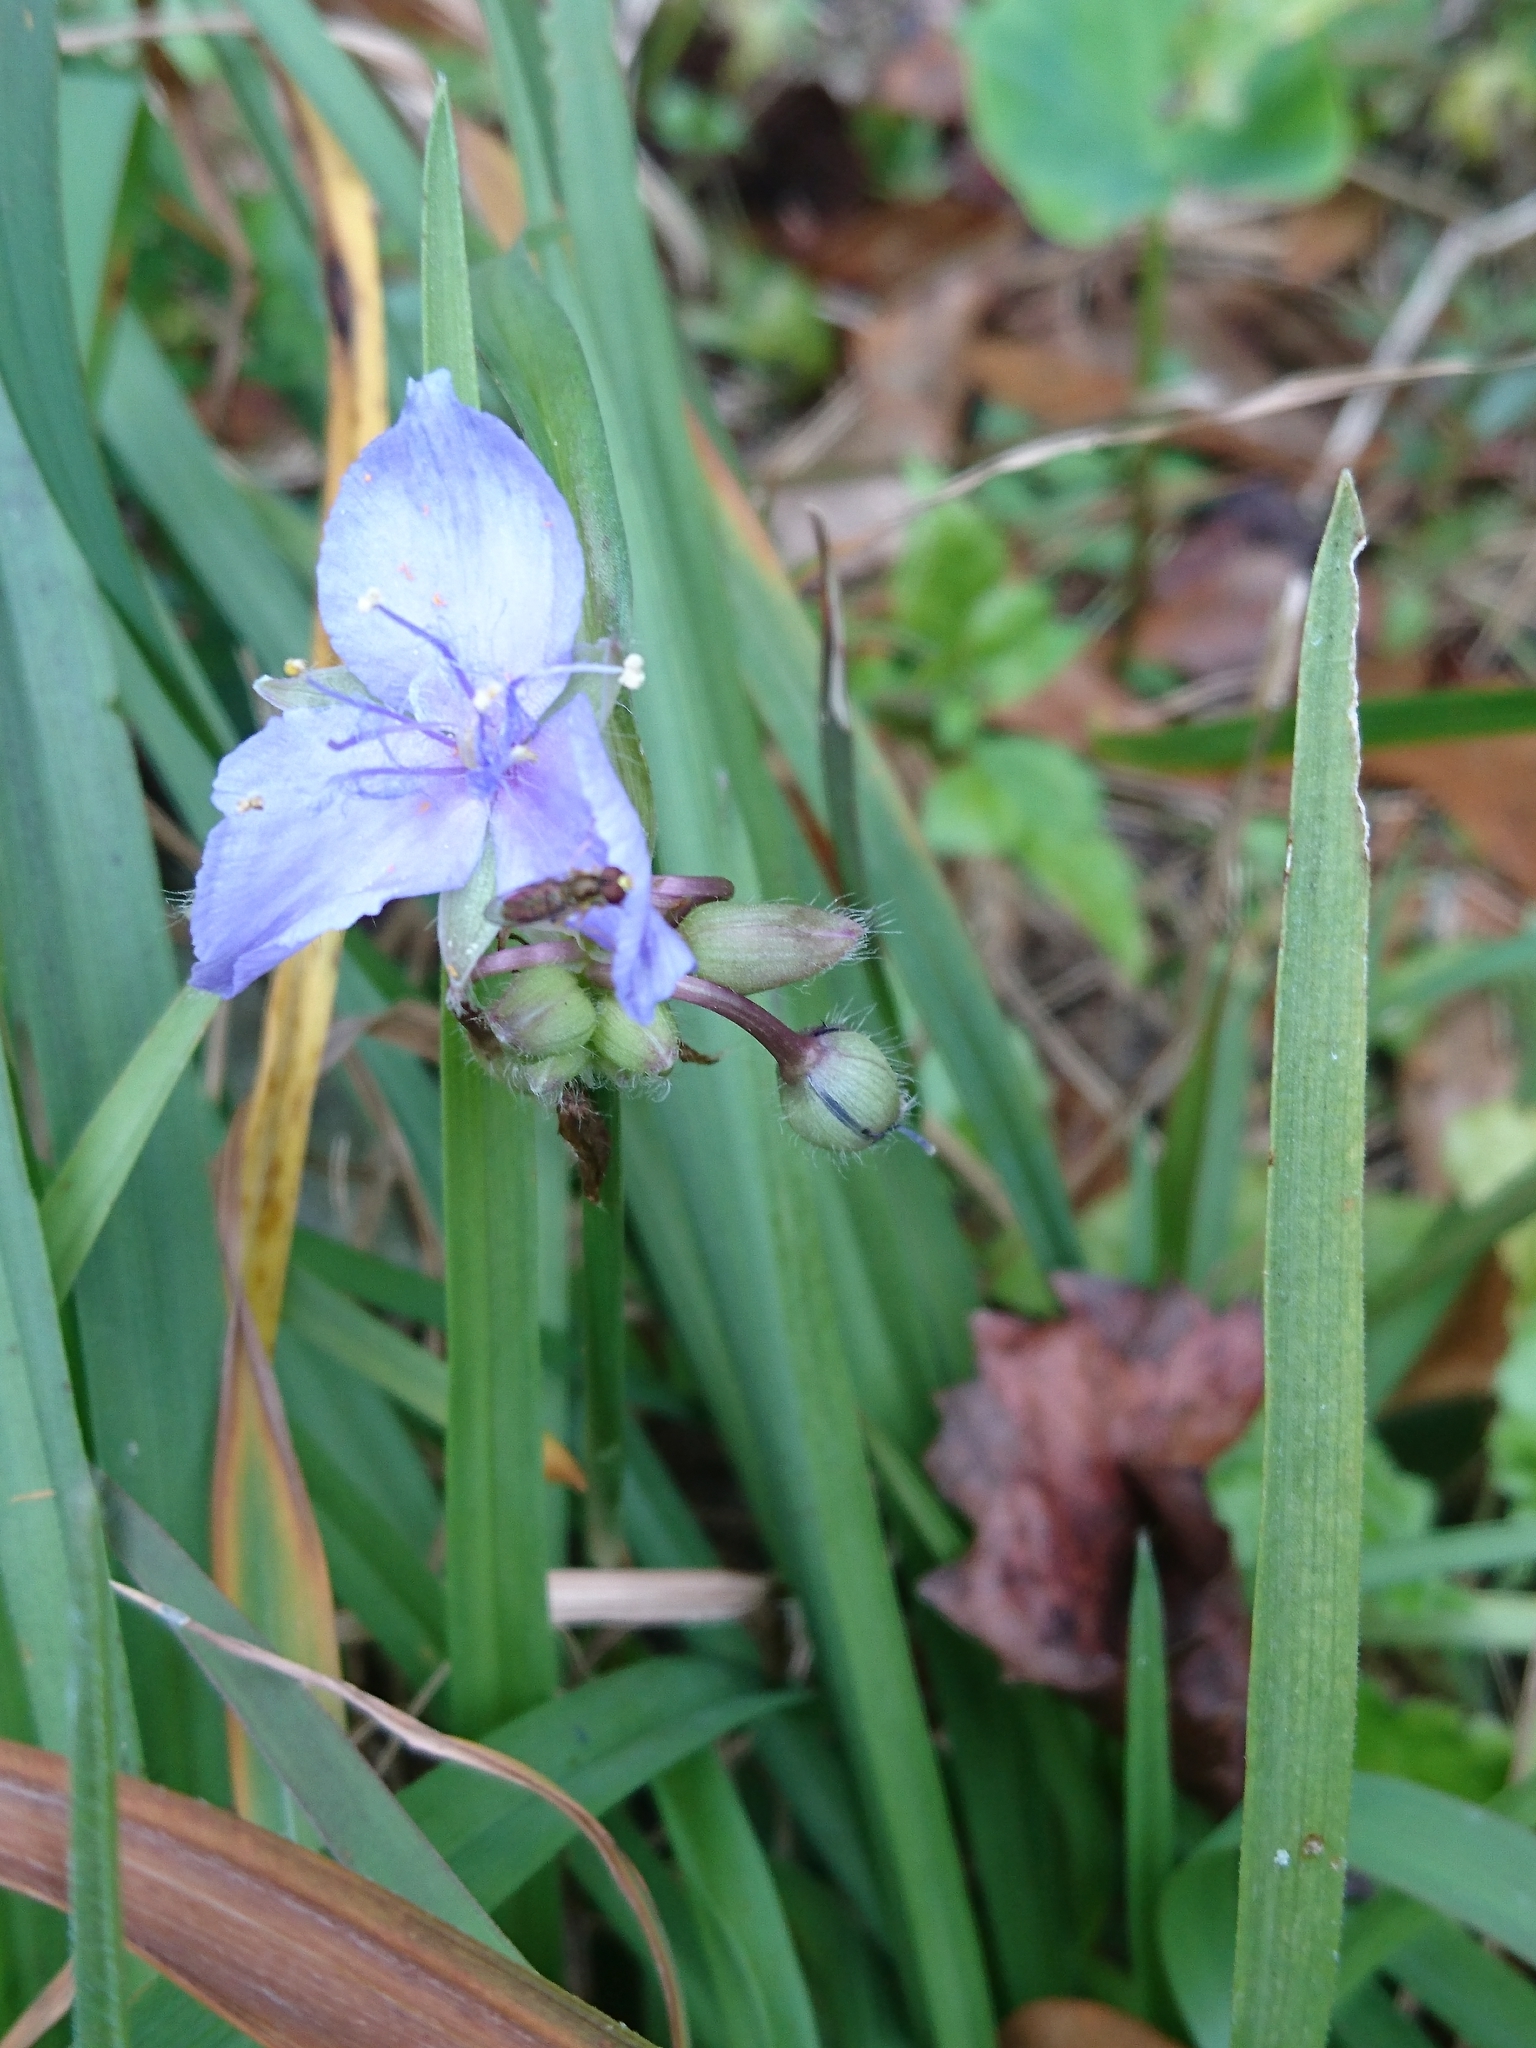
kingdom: Plantae
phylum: Tracheophyta
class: Liliopsida
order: Commelinales
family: Commelinaceae
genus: Tradescantia
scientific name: Tradescantia virginiana
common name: Spiderwort
